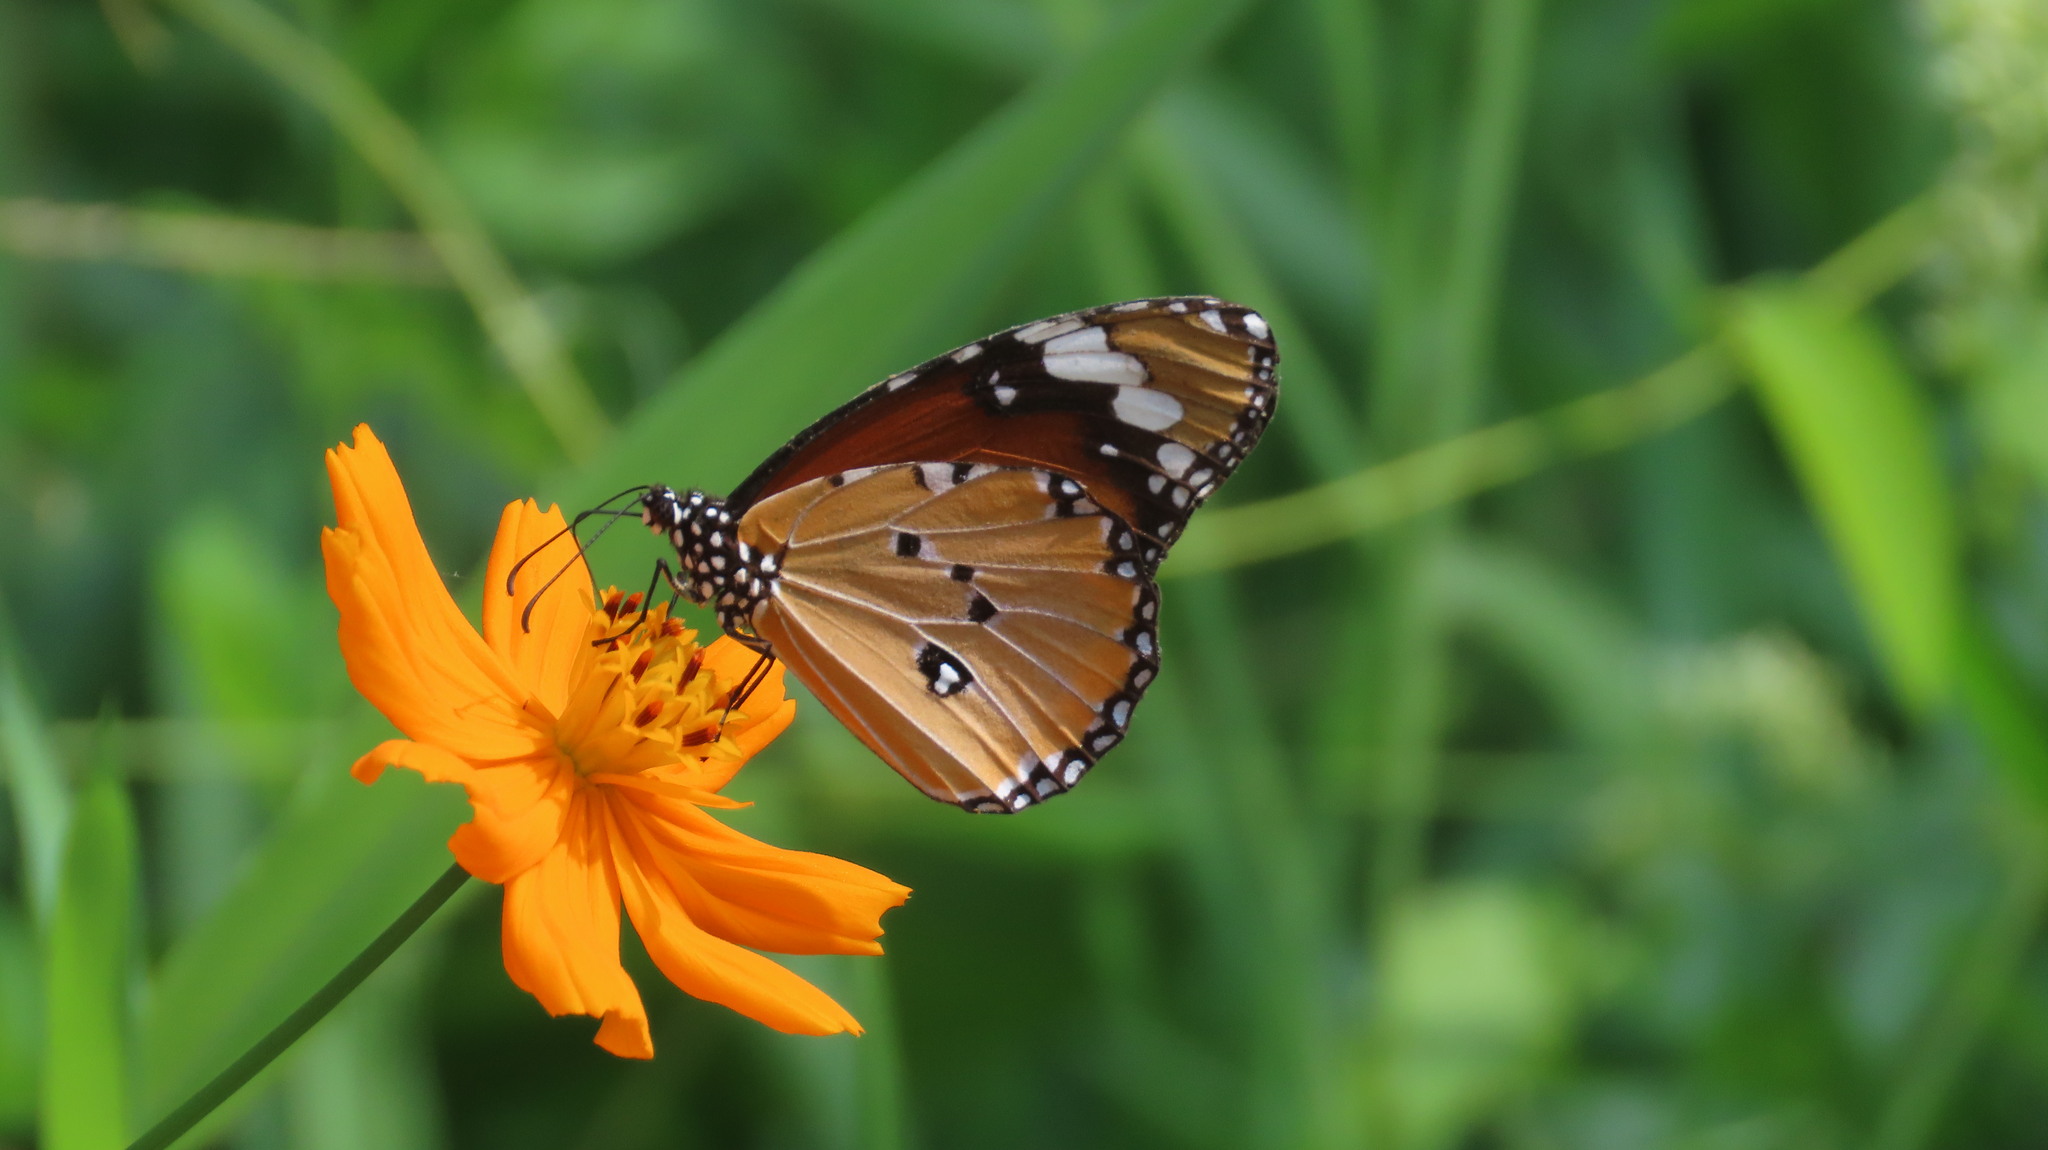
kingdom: Animalia
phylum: Arthropoda
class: Insecta
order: Lepidoptera
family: Nymphalidae
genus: Danaus
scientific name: Danaus chrysippus
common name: Plain tiger
